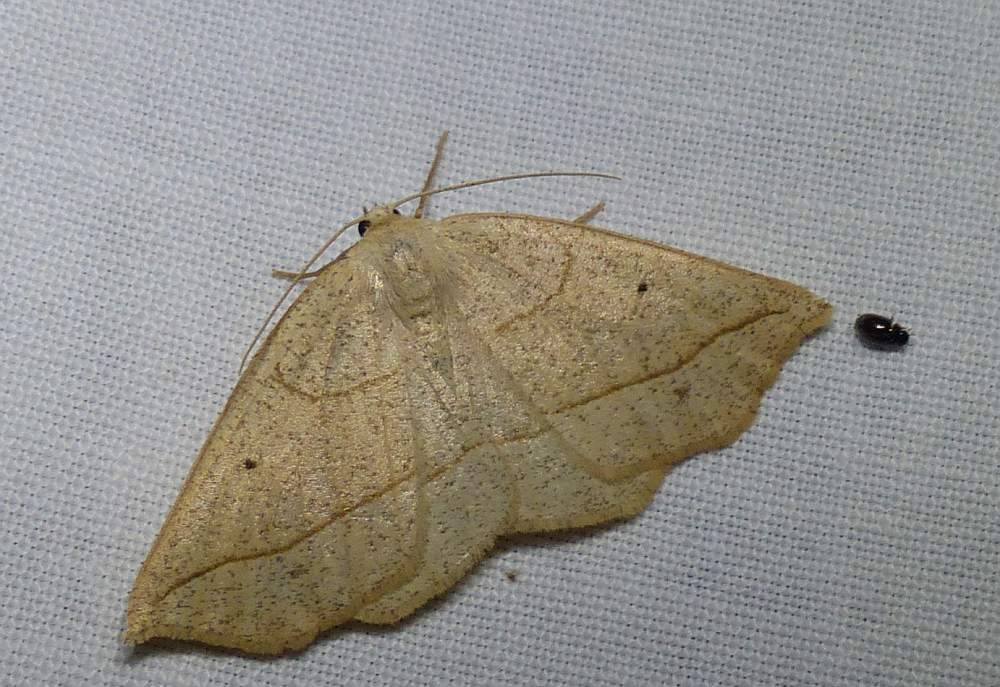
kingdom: Animalia
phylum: Arthropoda
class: Insecta
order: Lepidoptera
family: Geometridae
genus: Eusarca
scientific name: Eusarca confusaria
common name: Confused eusarca
